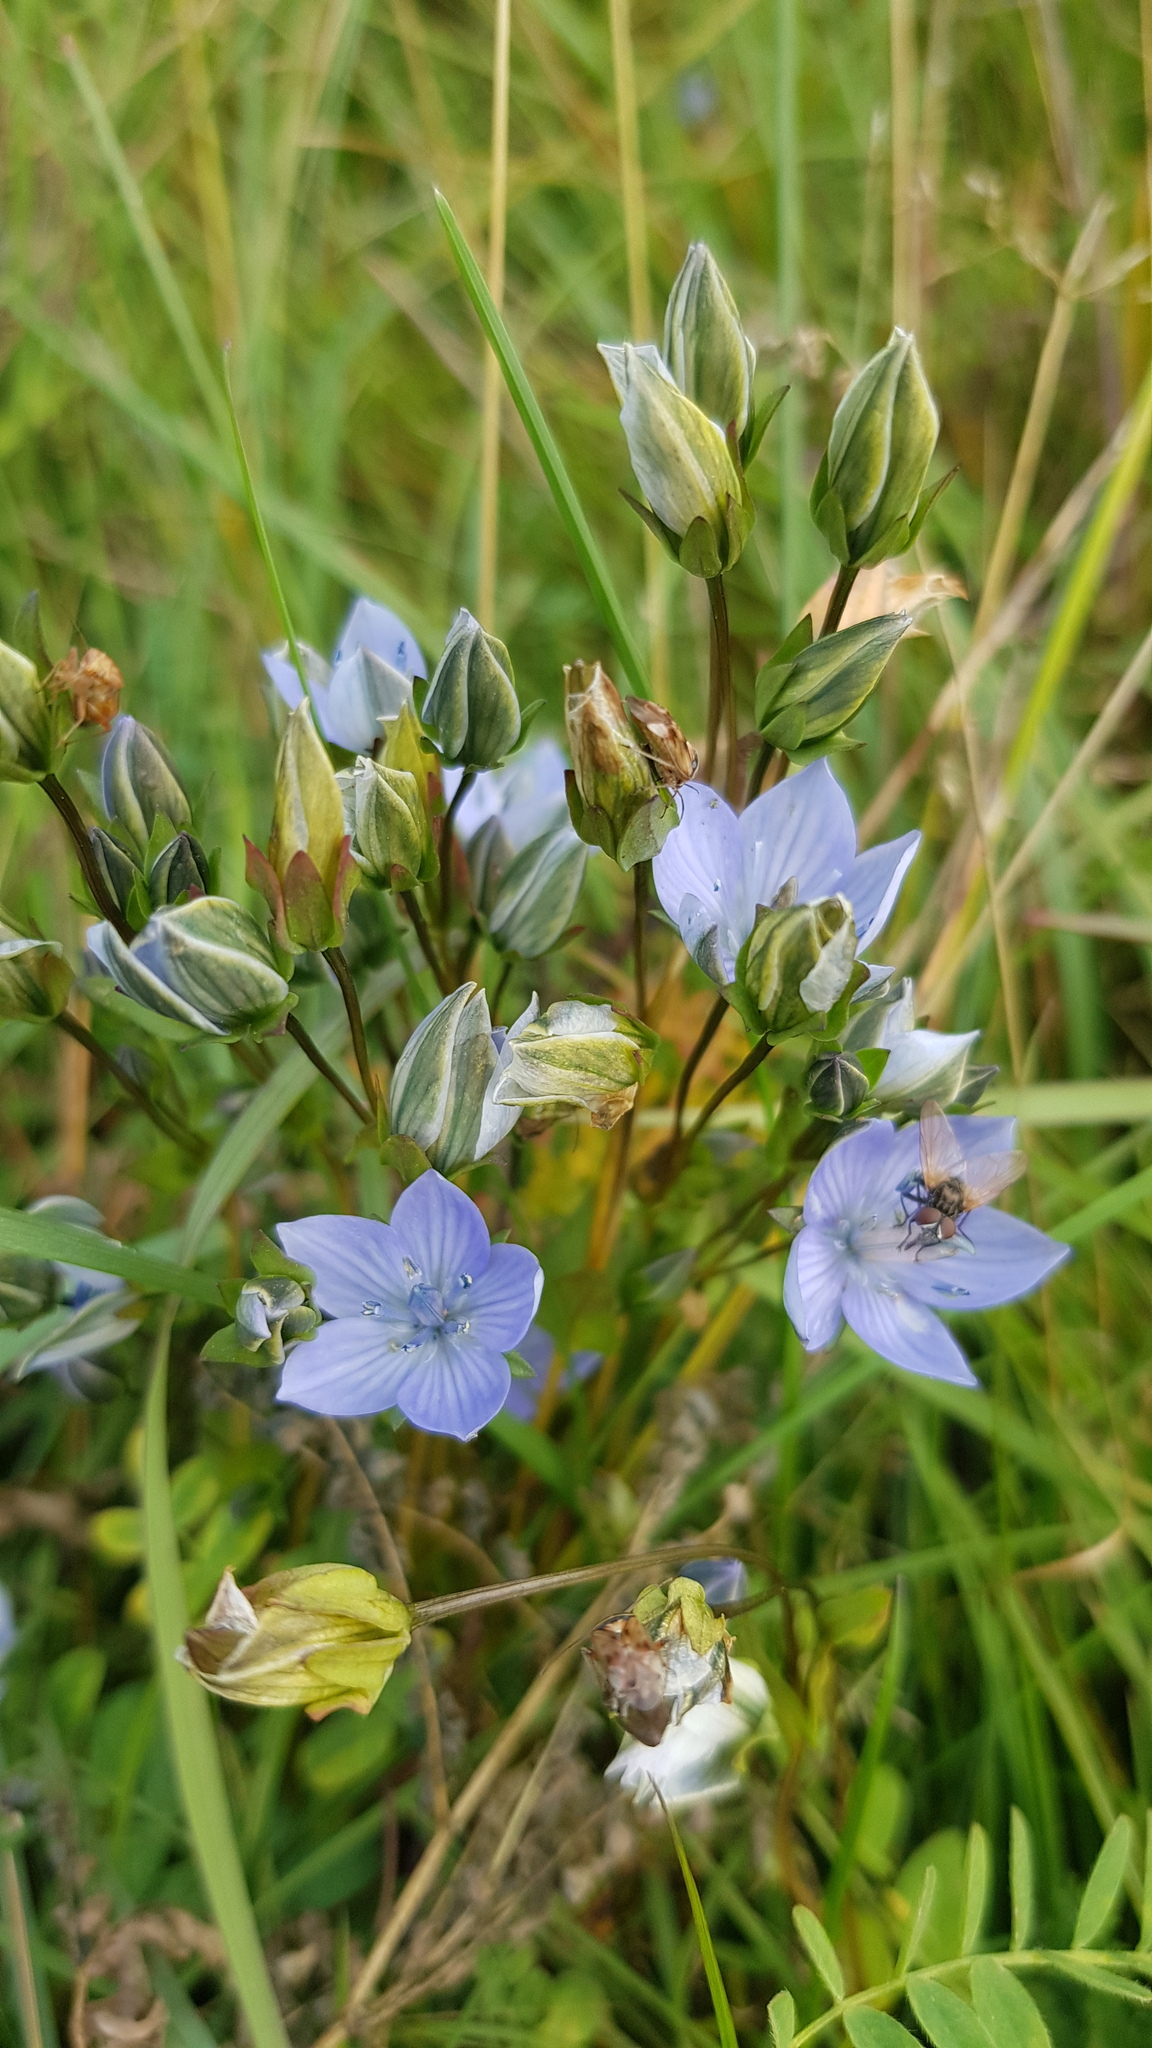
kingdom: Plantae
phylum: Tracheophyta
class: Magnoliopsida
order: Gentianales
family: Gentianaceae
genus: Lomatogonium
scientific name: Lomatogonium carinthiacum
